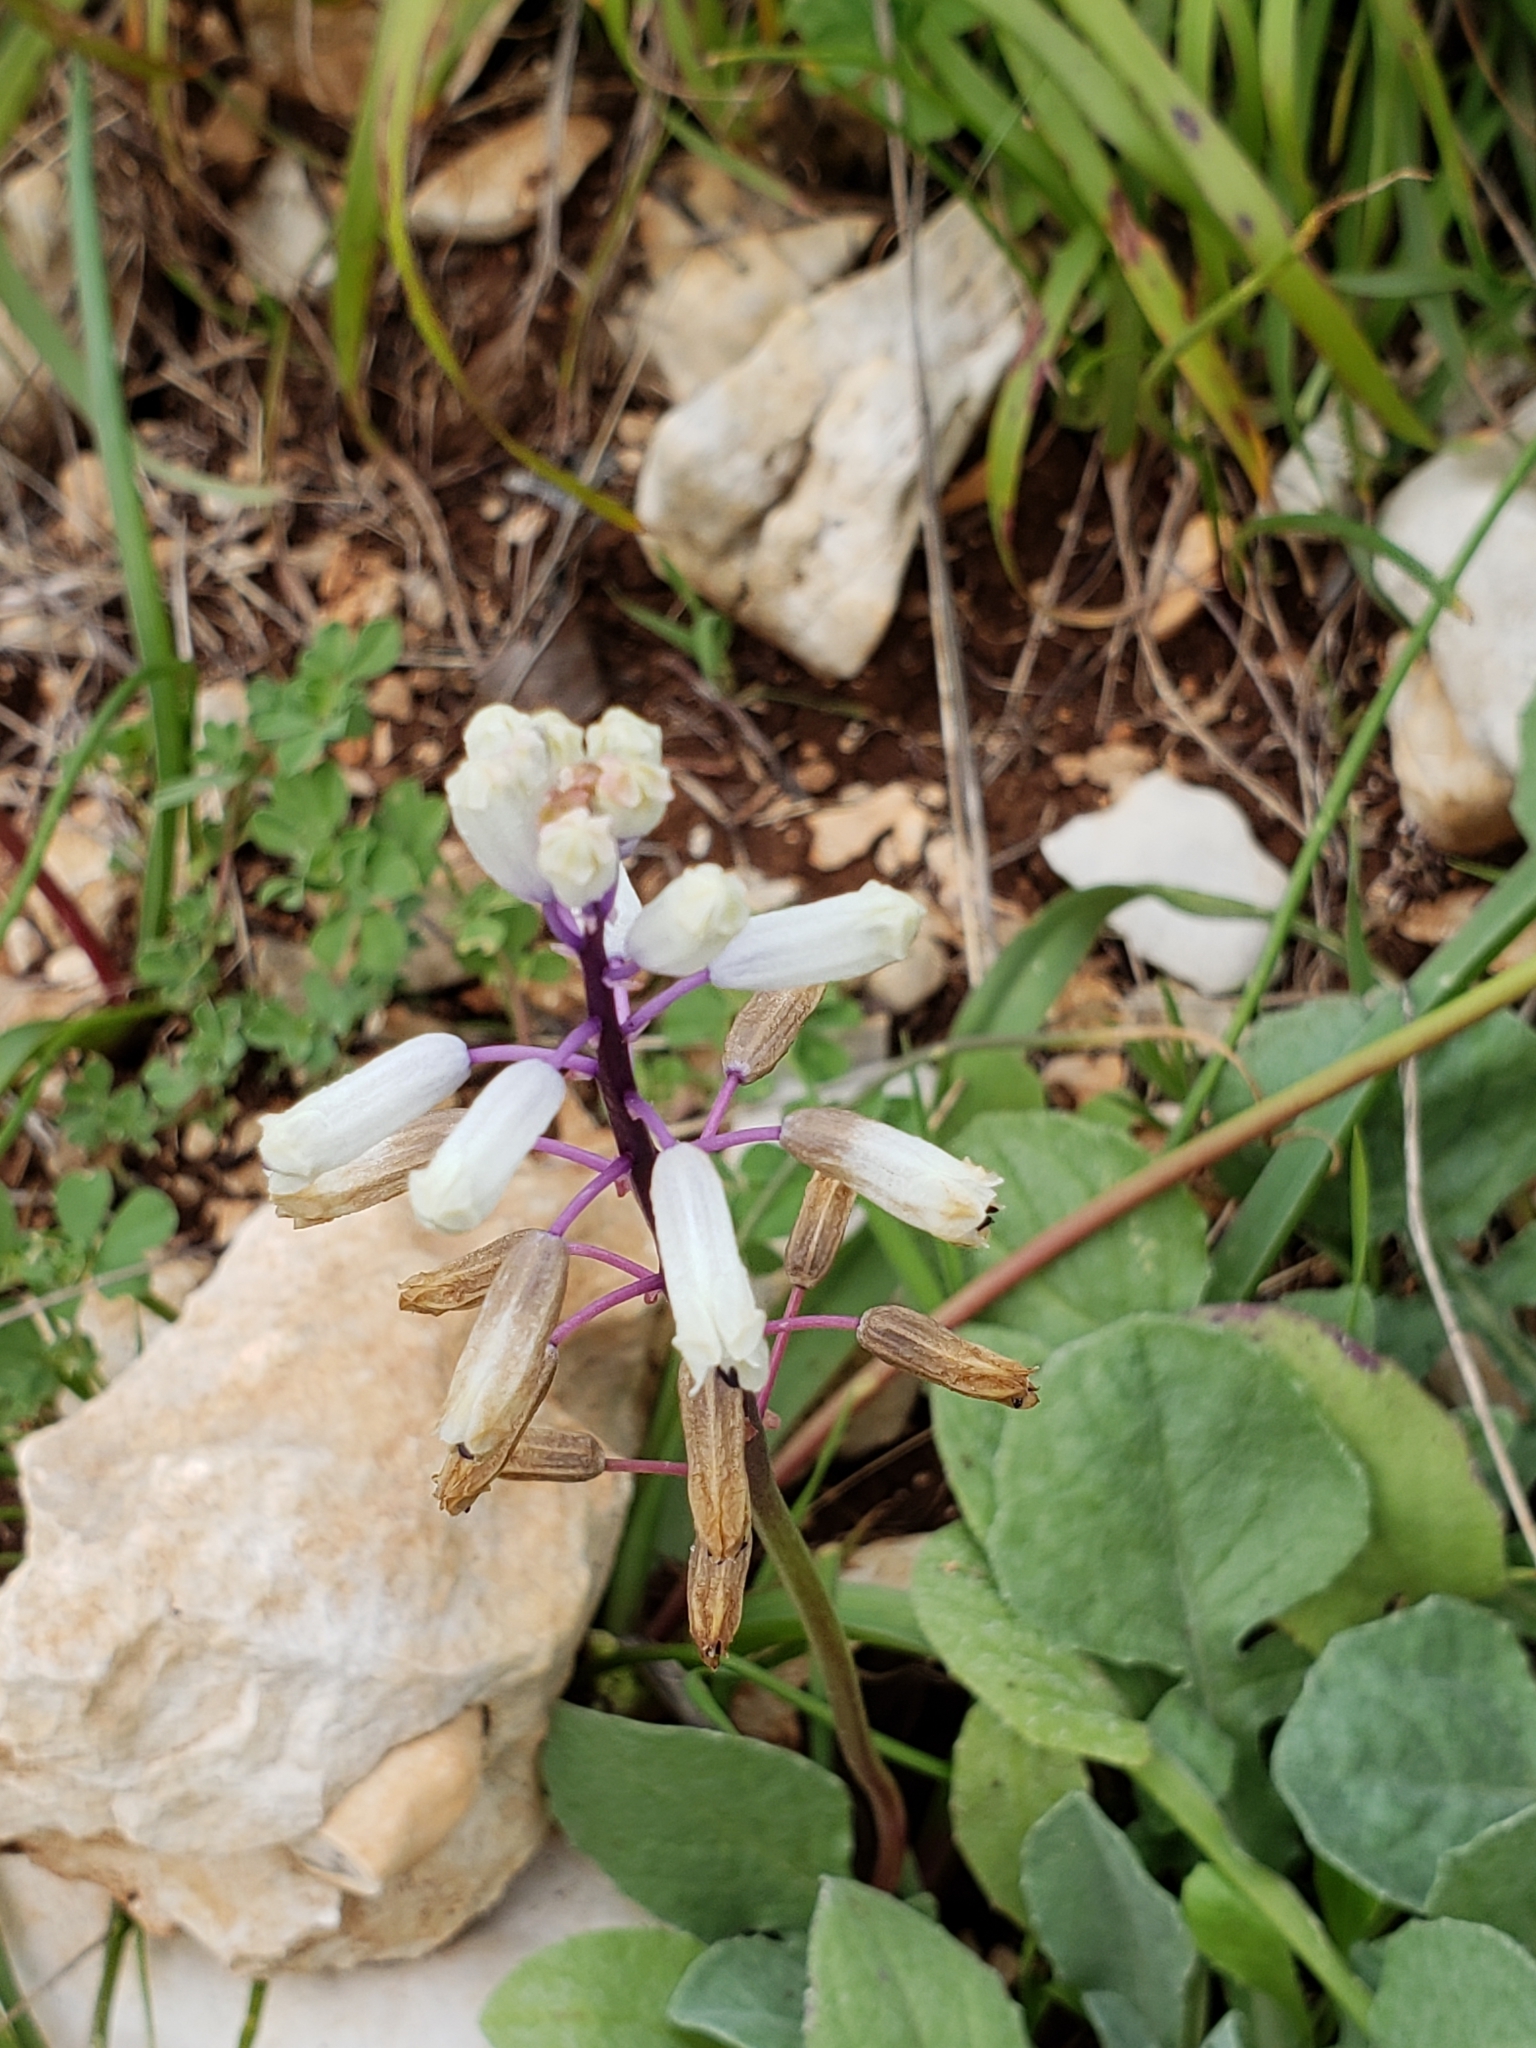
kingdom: Plantae
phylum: Tracheophyta
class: Liliopsida
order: Asparagales
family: Asparagaceae
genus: Bellevalia
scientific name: Bellevalia flexuosa
